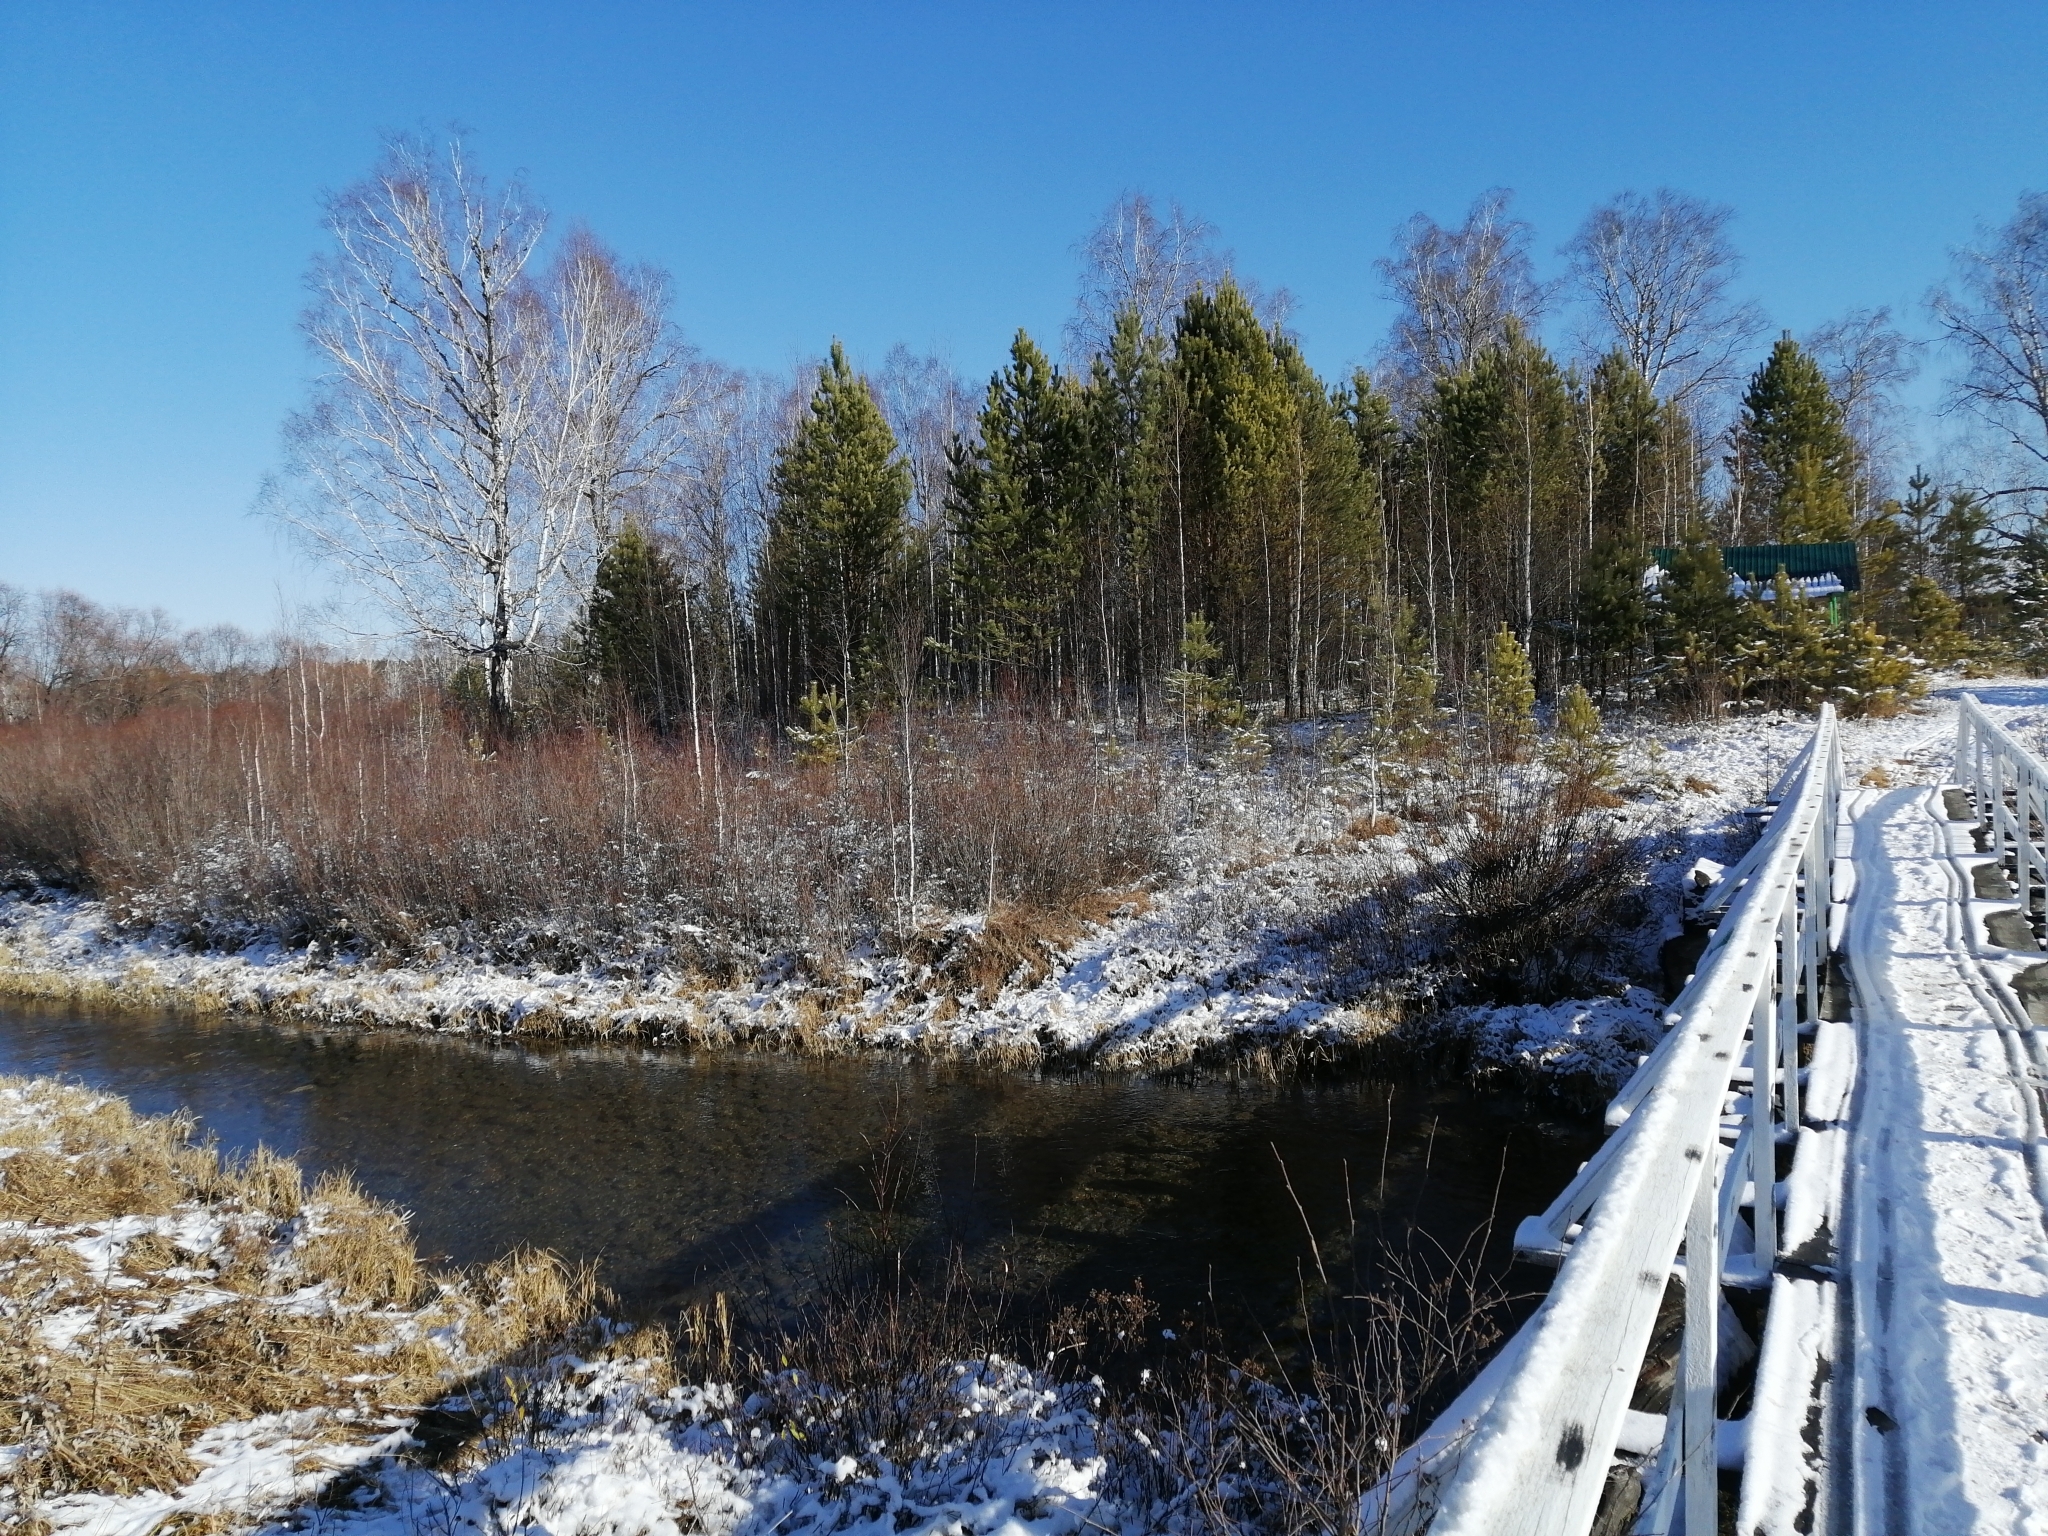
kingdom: Plantae
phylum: Tracheophyta
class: Pinopsida
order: Pinales
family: Pinaceae
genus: Pinus
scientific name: Pinus sylvestris
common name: Scots pine
